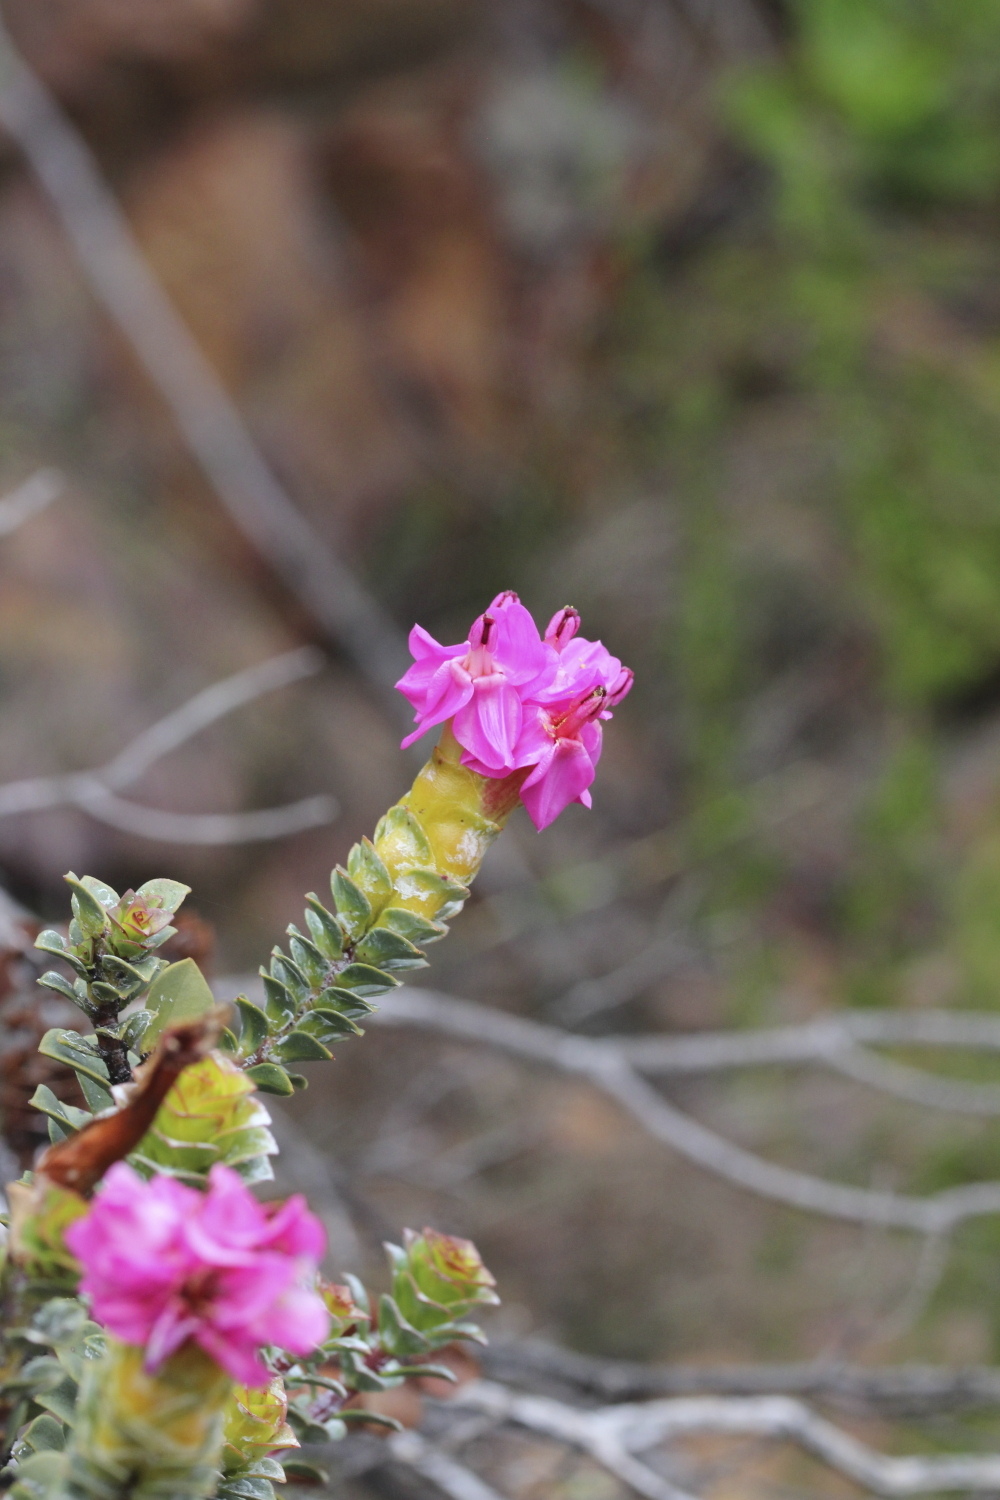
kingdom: Plantae
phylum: Tracheophyta
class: Magnoliopsida
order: Myrtales
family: Penaeaceae
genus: Saltera
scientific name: Saltera sarcocolla
